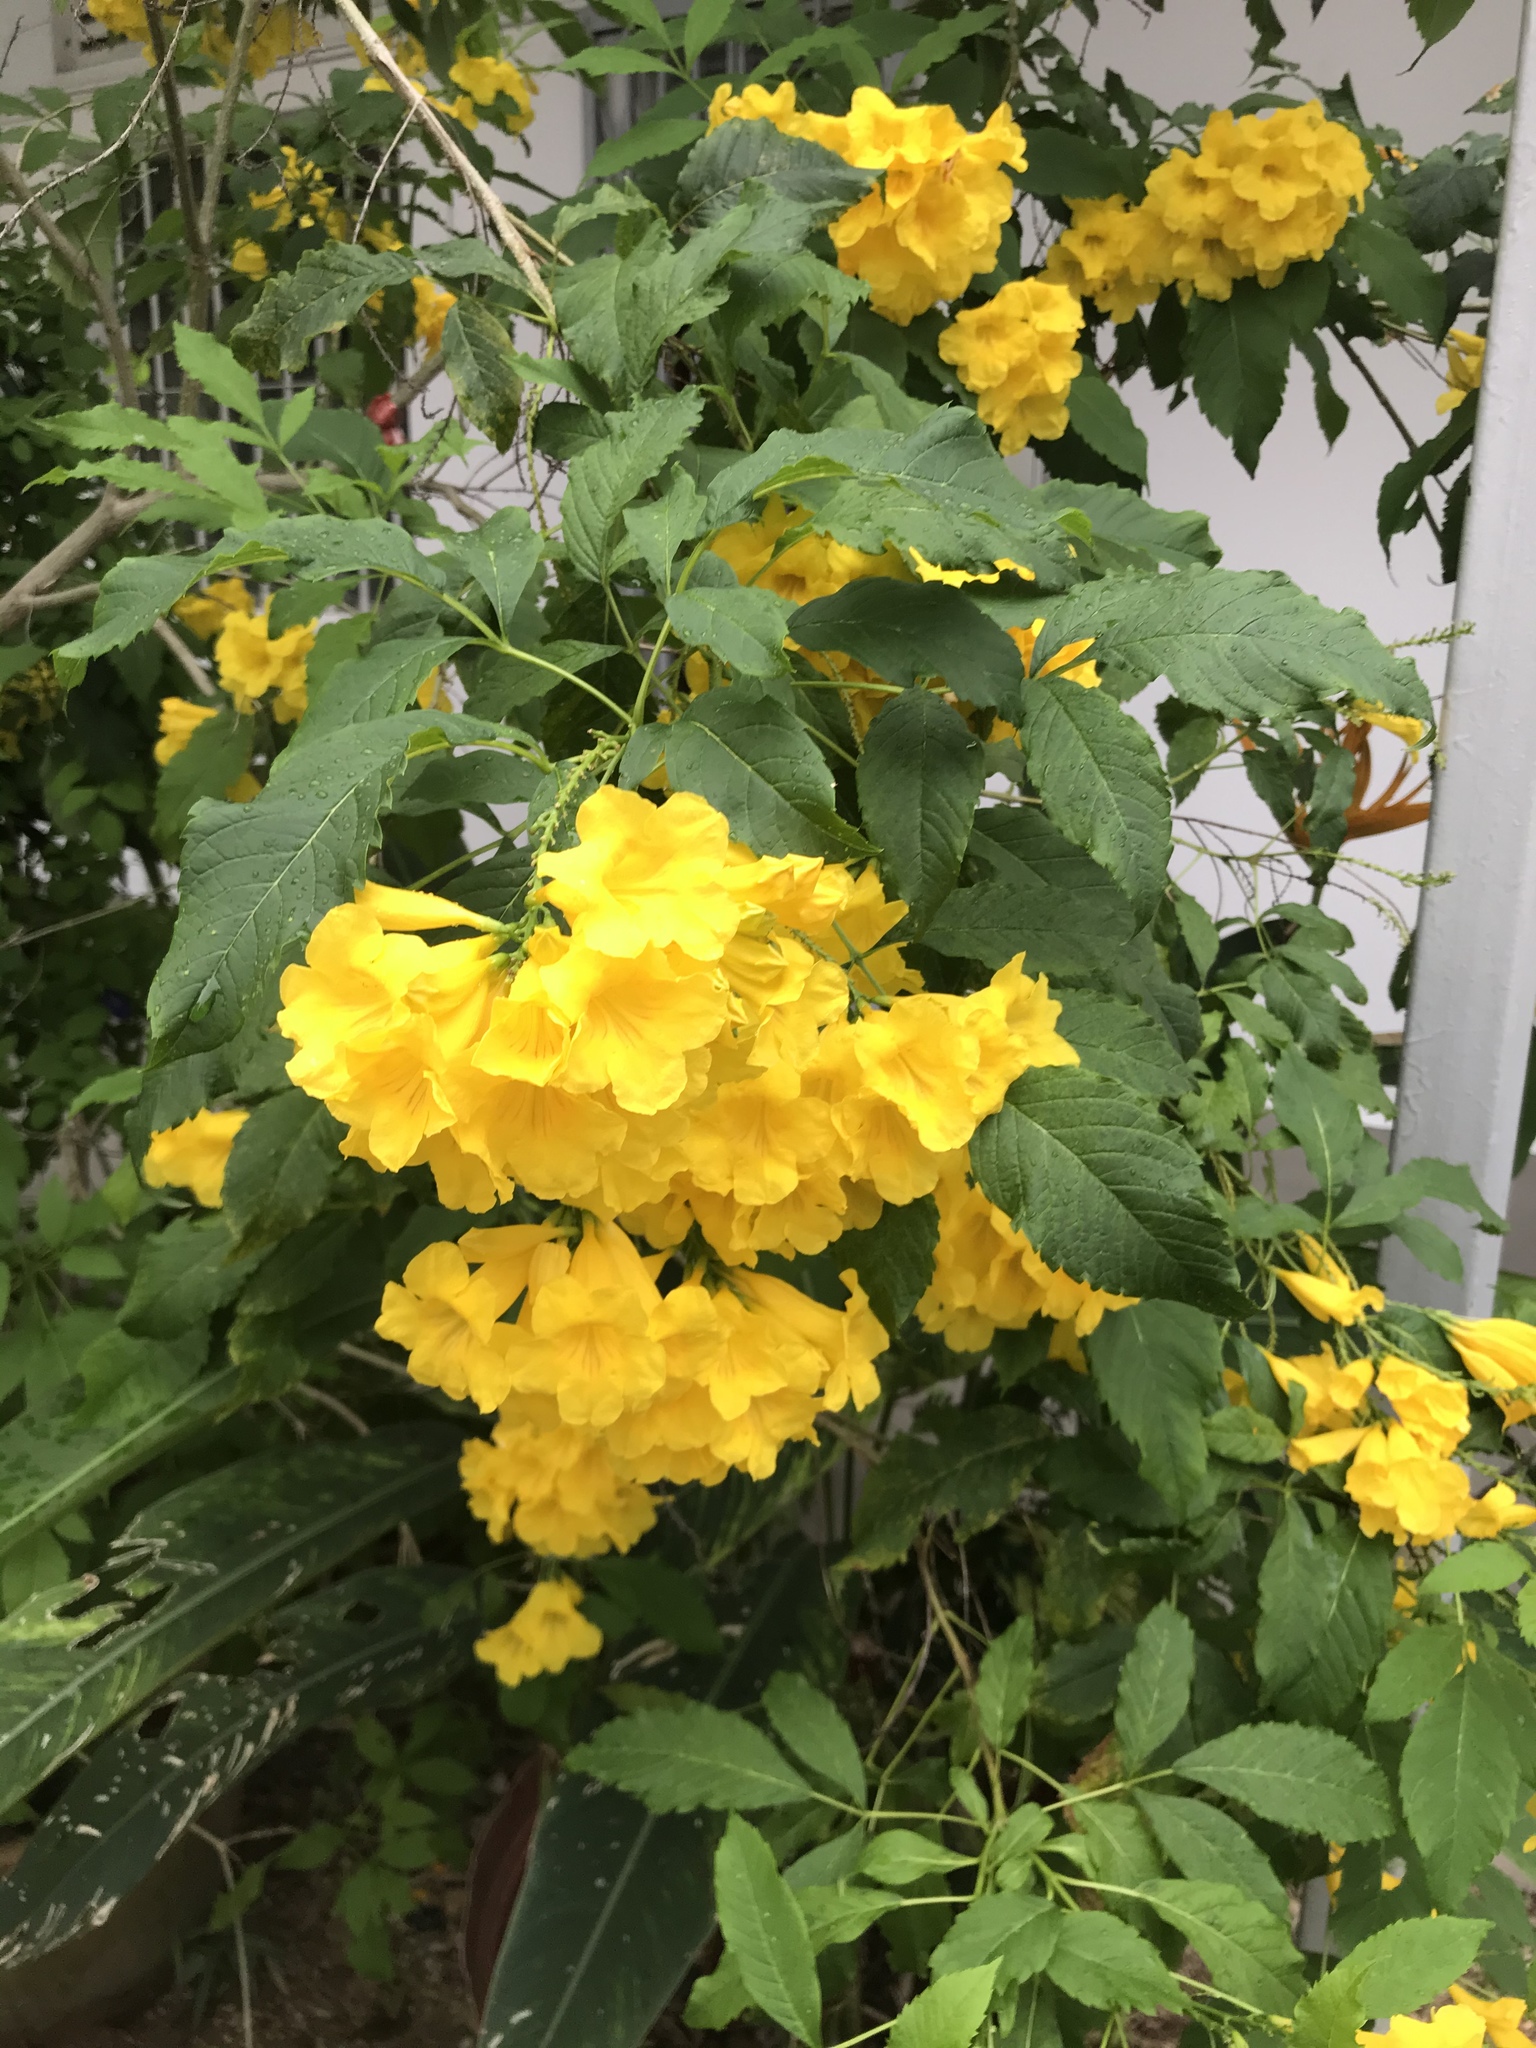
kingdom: Plantae
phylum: Tracheophyta
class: Magnoliopsida
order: Lamiales
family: Bignoniaceae
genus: Tecoma
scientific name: Tecoma stans
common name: Yellow trumpetbush
